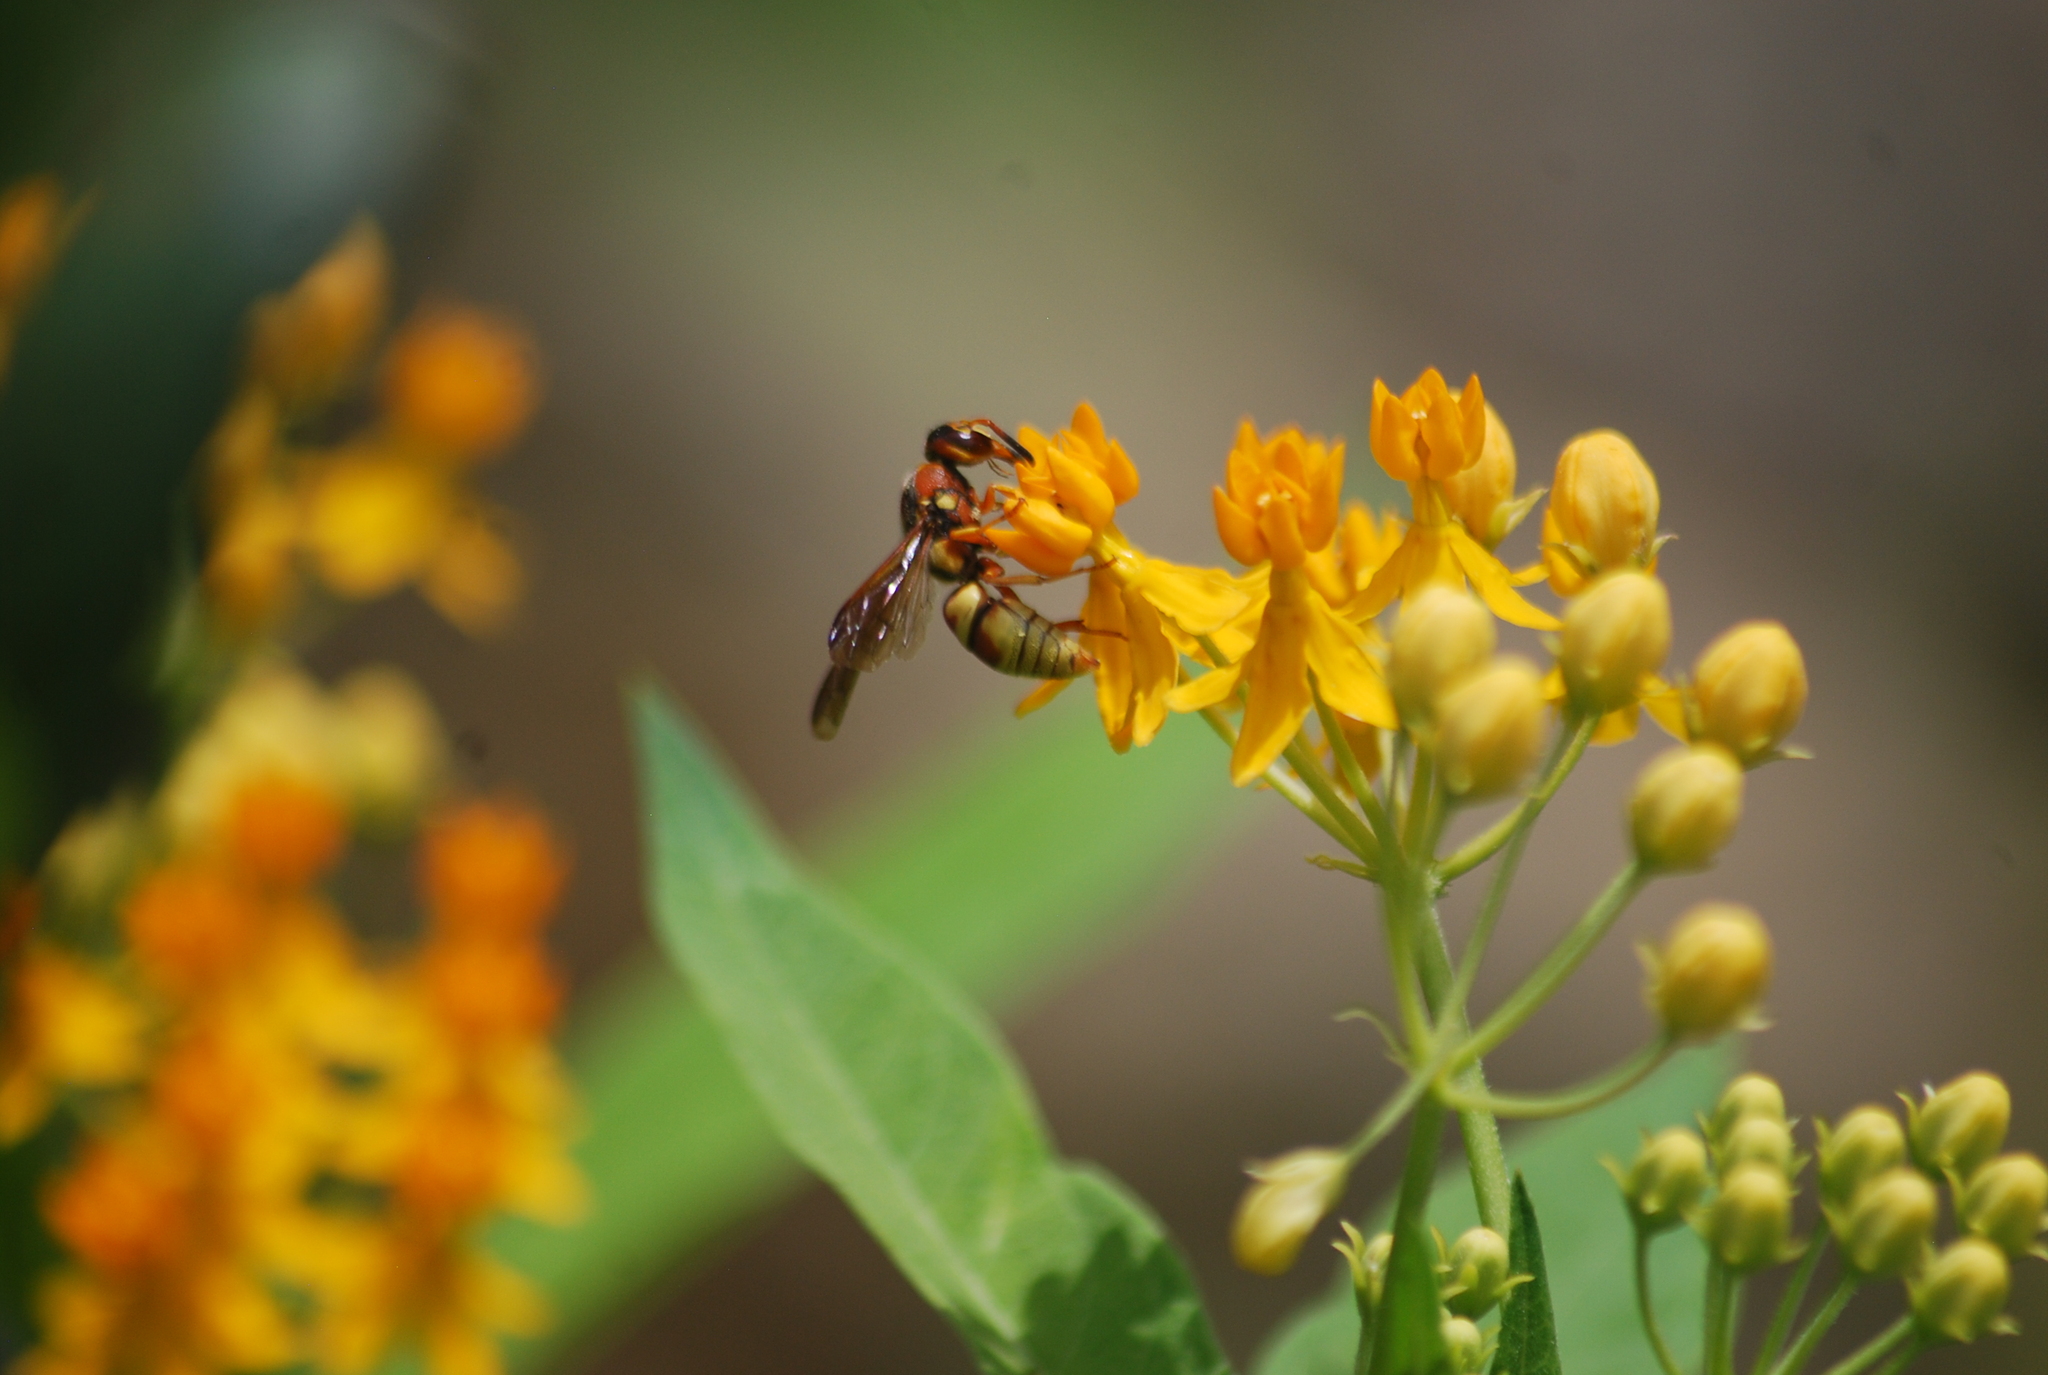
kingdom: Animalia
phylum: Arthropoda
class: Insecta
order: Hymenoptera
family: Eumenidae
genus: Euodynerus
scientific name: Euodynerus pratensis
